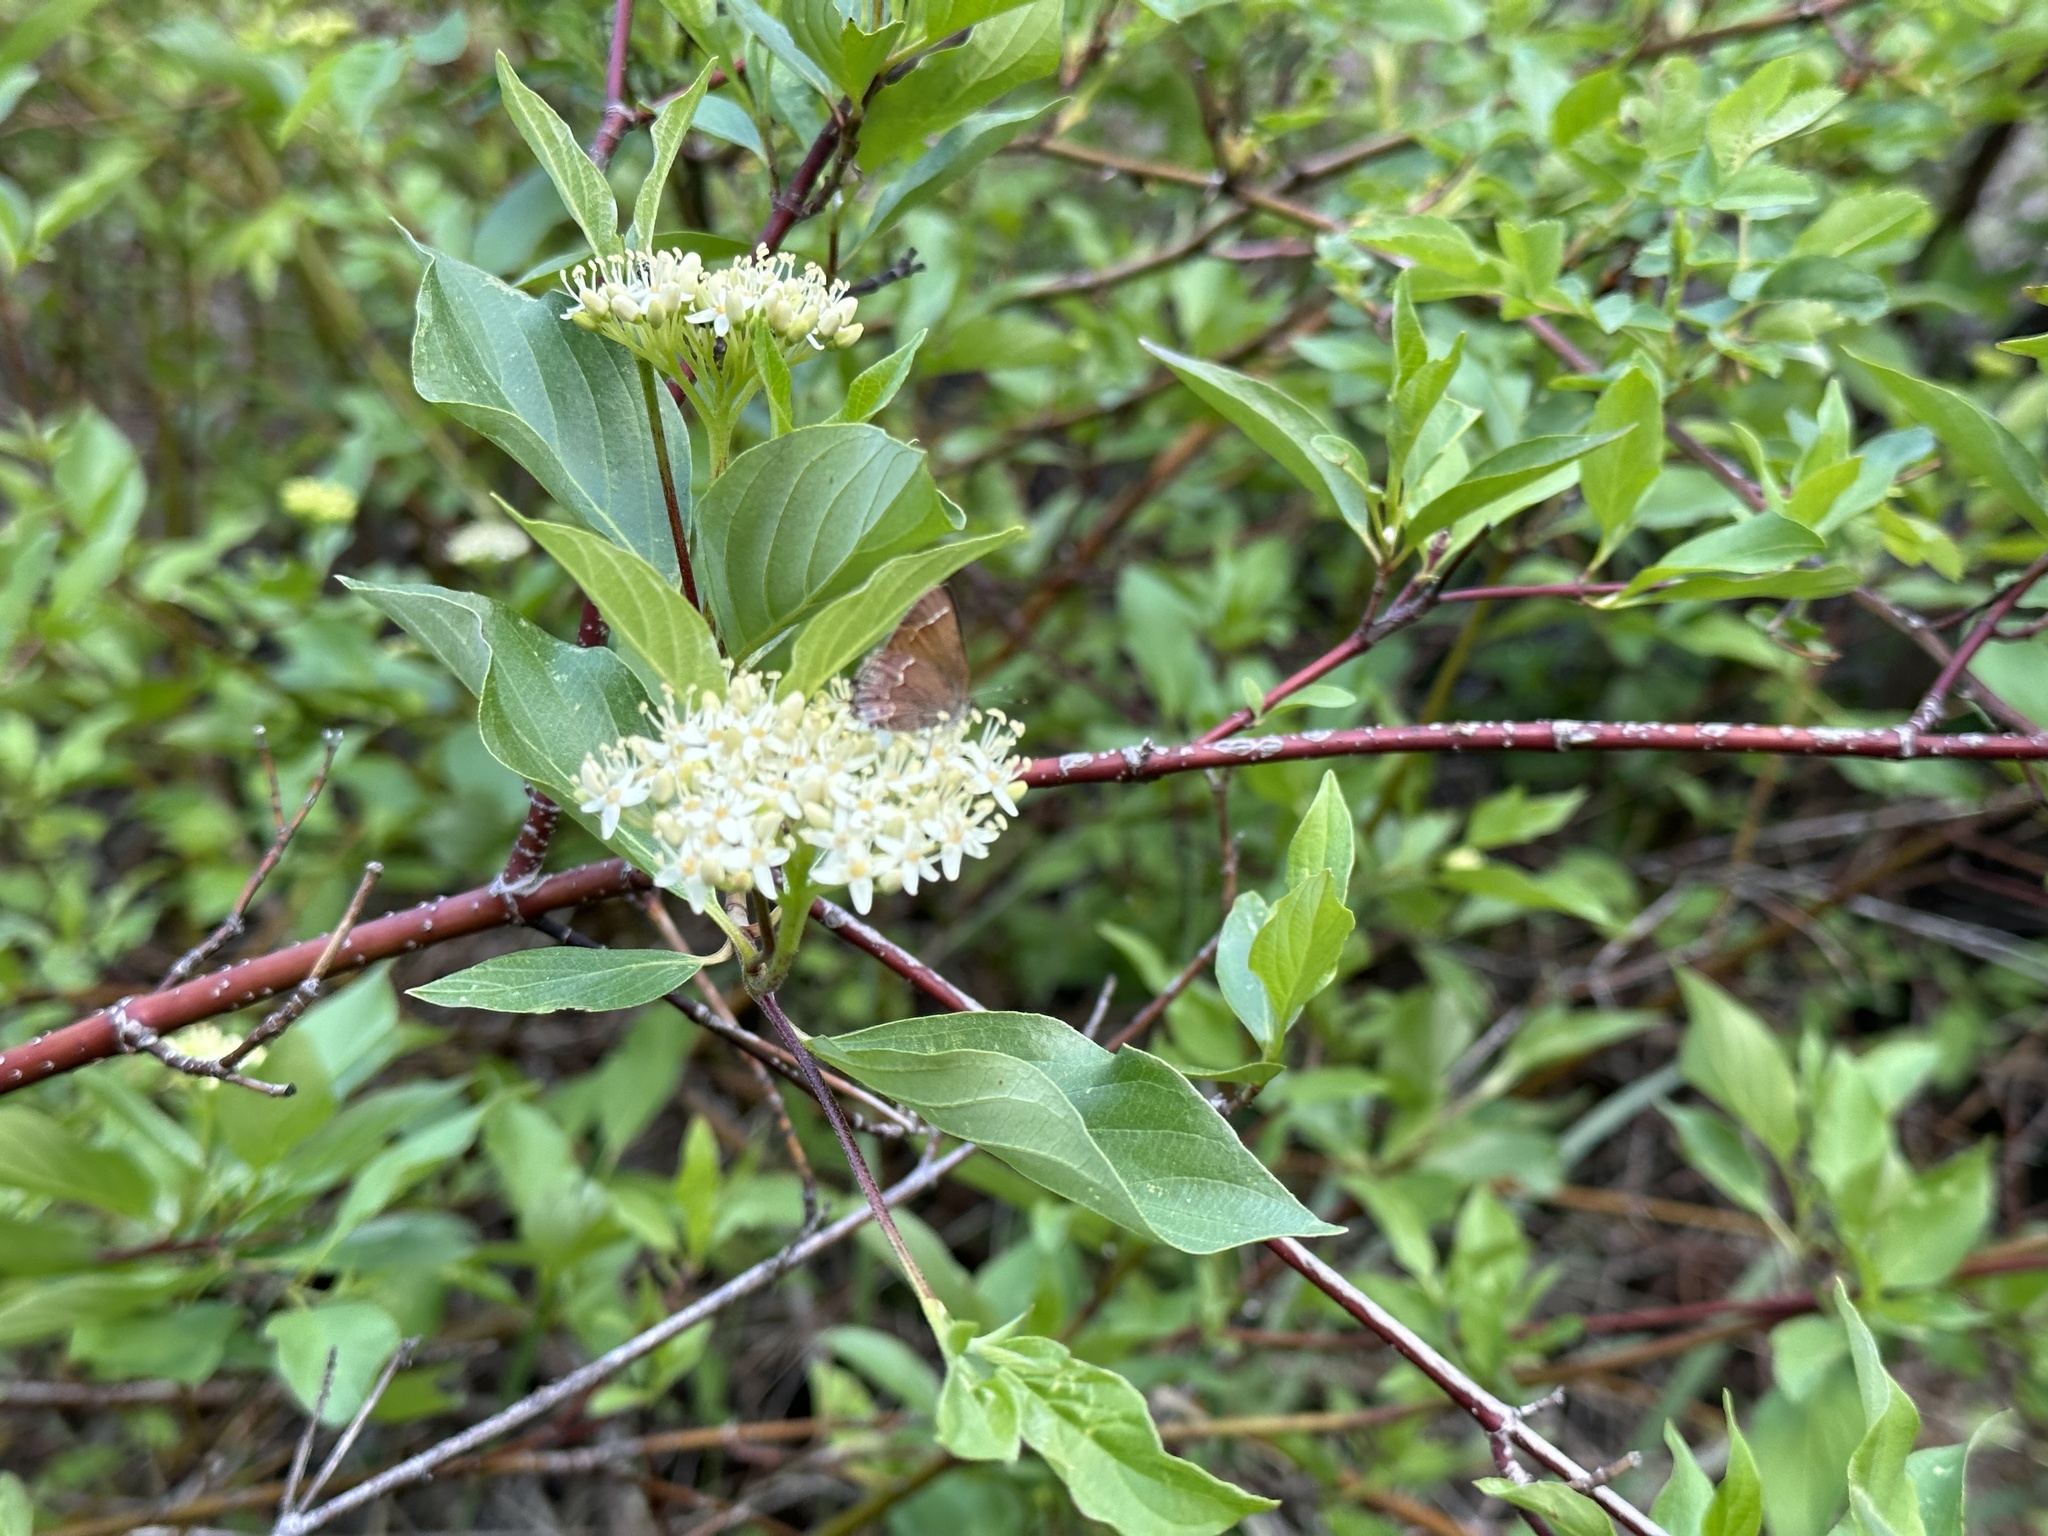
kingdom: Animalia
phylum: Arthropoda
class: Insecta
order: Lepidoptera
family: Lycaenidae
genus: Mitoura
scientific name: Mitoura gryneus
